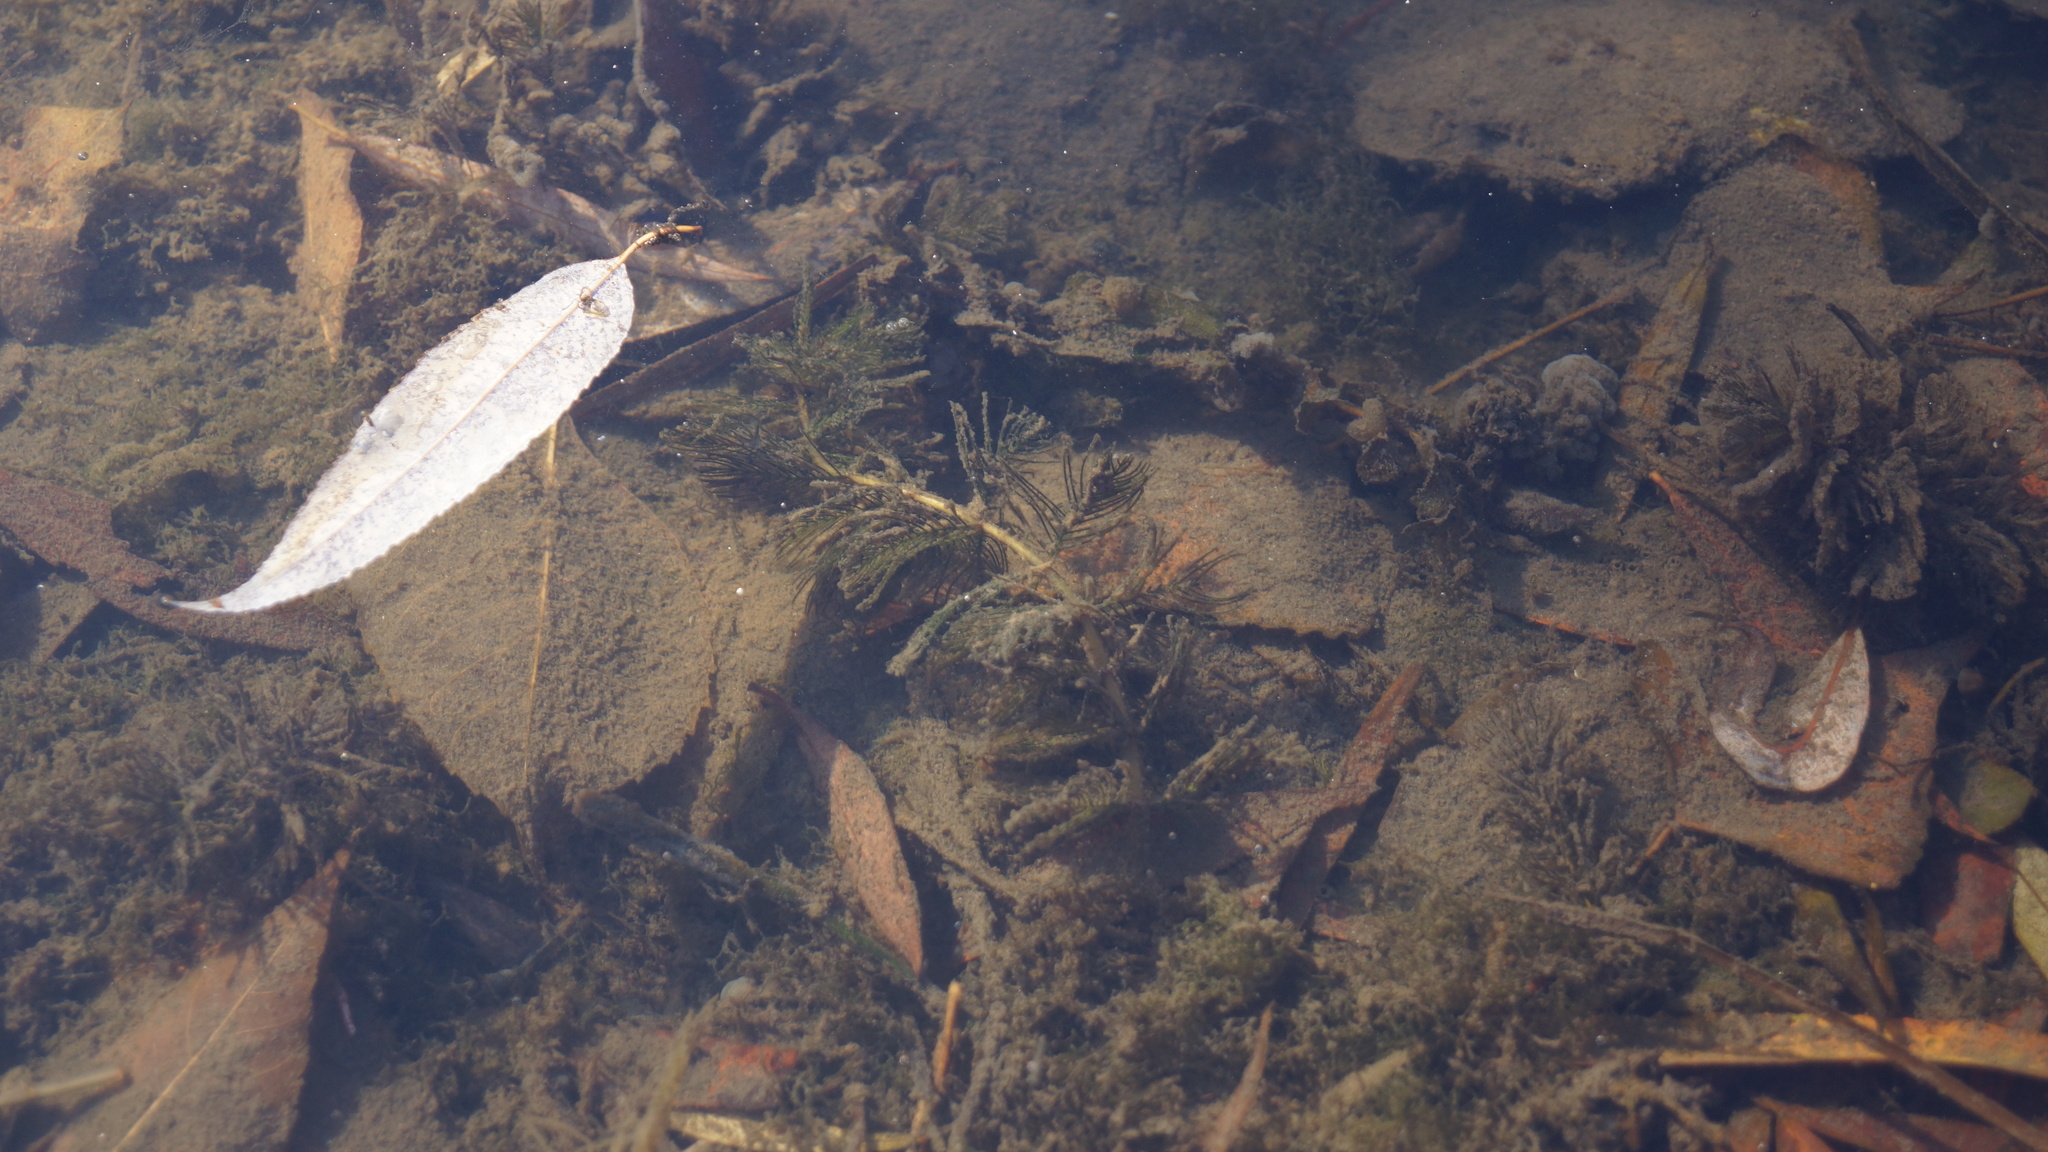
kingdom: Plantae
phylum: Tracheophyta
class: Magnoliopsida
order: Saxifragales
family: Haloragaceae
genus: Myriophyllum
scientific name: Myriophyllum spicatum
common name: Spiked water-milfoil
